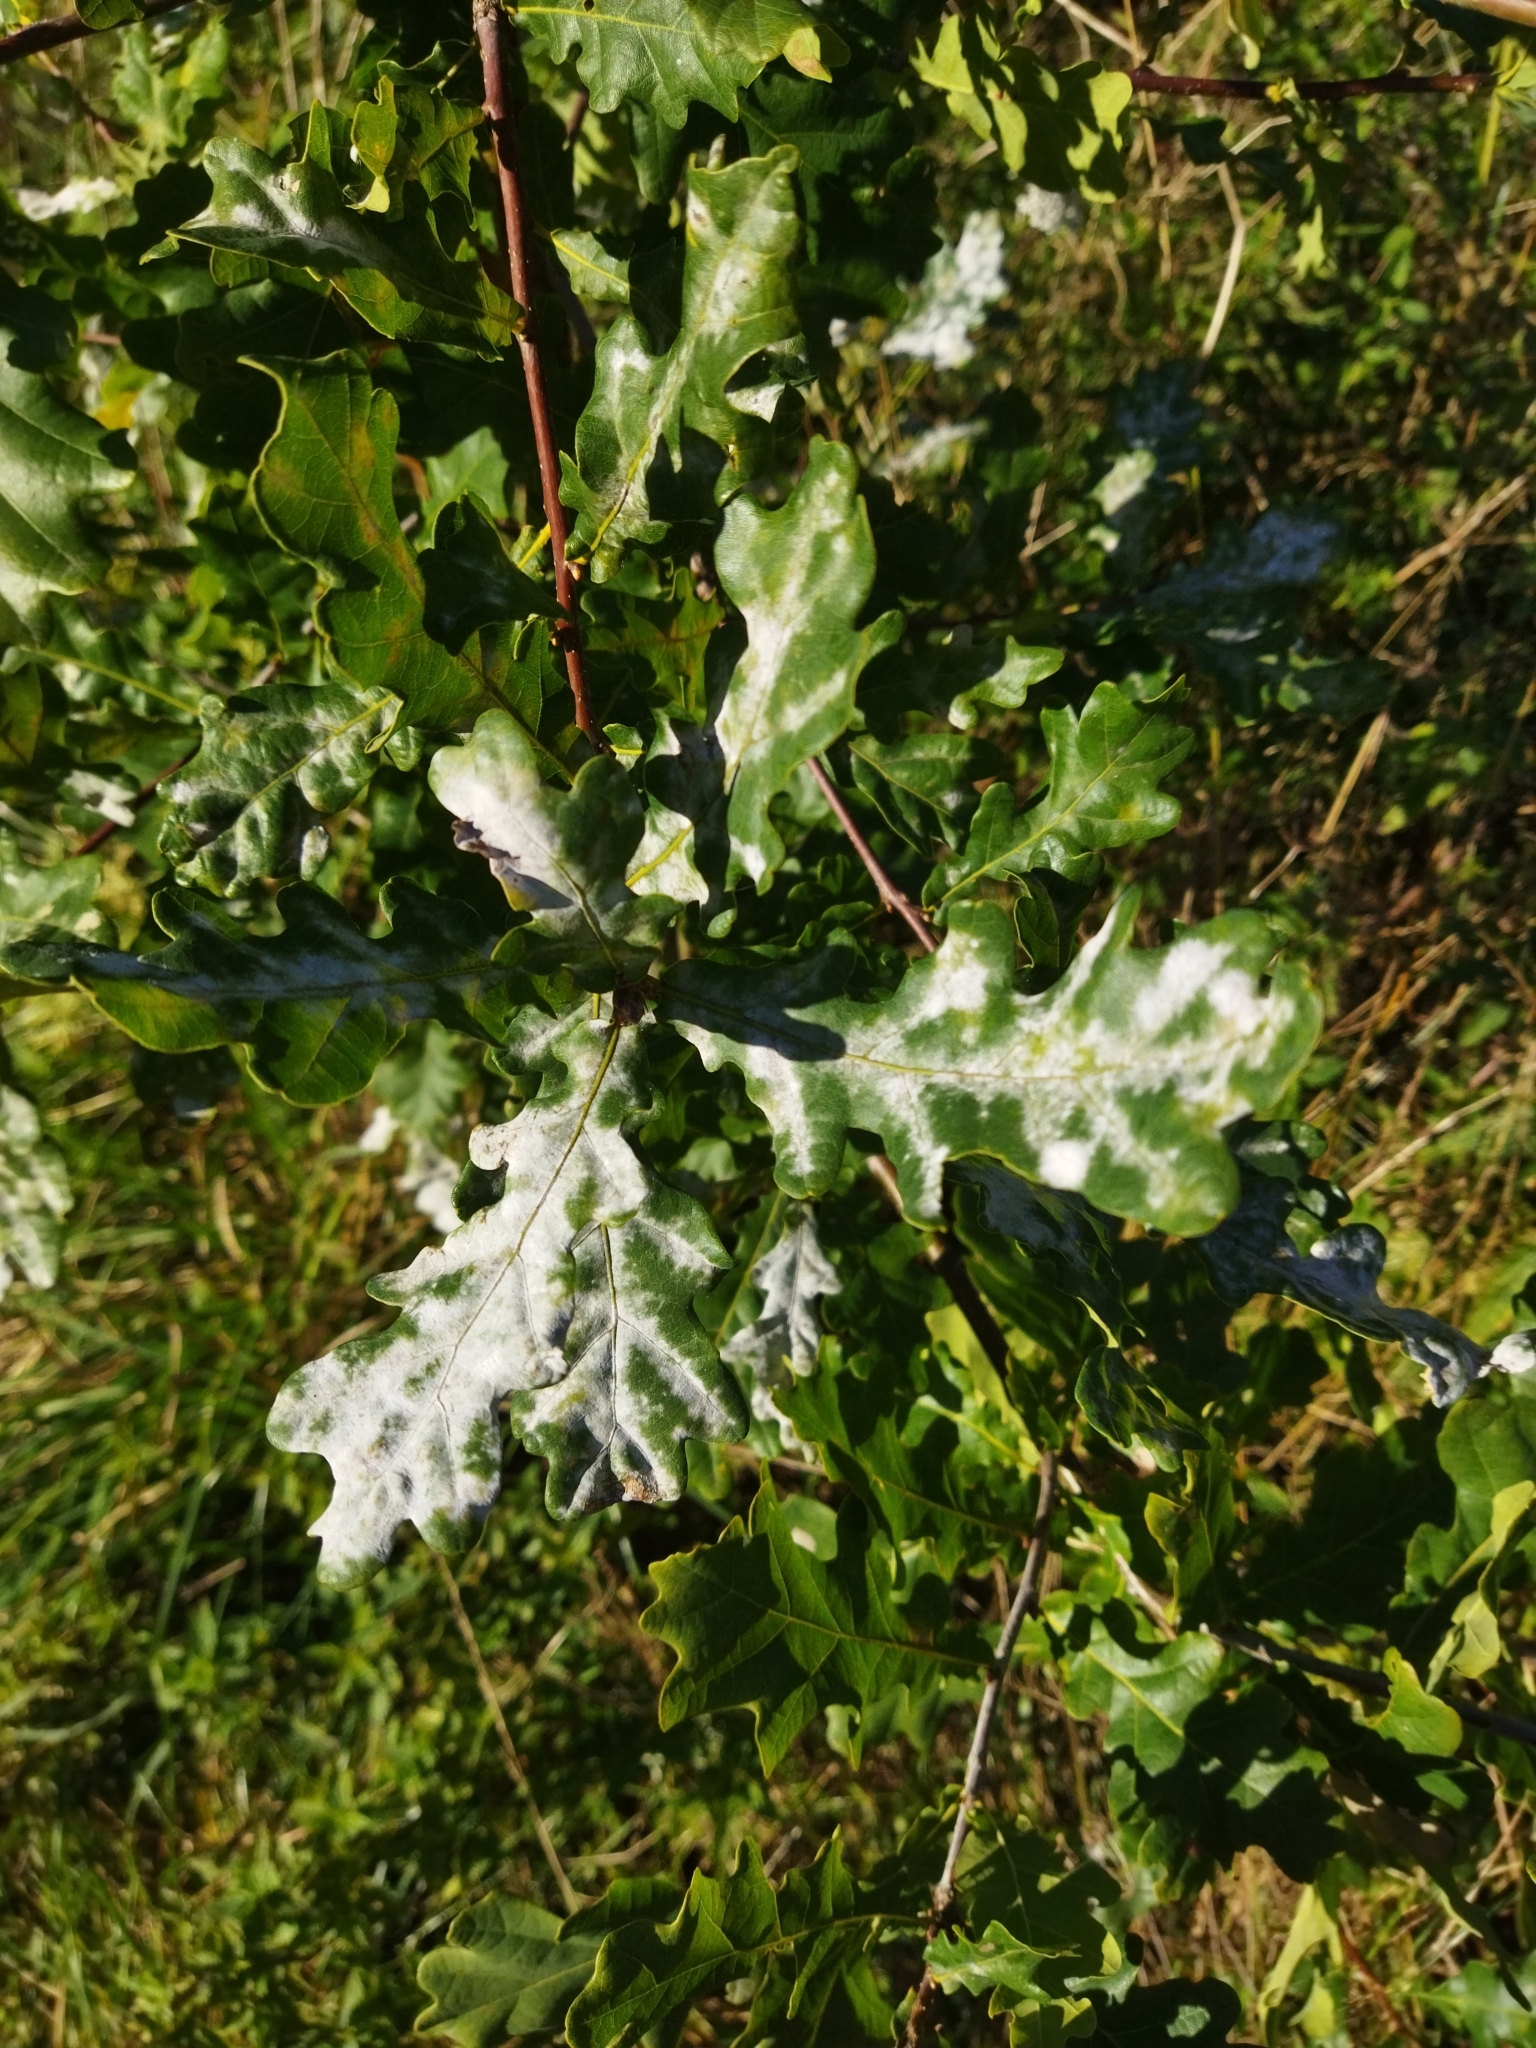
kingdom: Fungi
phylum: Ascomycota
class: Leotiomycetes
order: Helotiales
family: Erysiphaceae
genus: Erysiphe
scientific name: Erysiphe alphitoides
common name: Oak mildew
